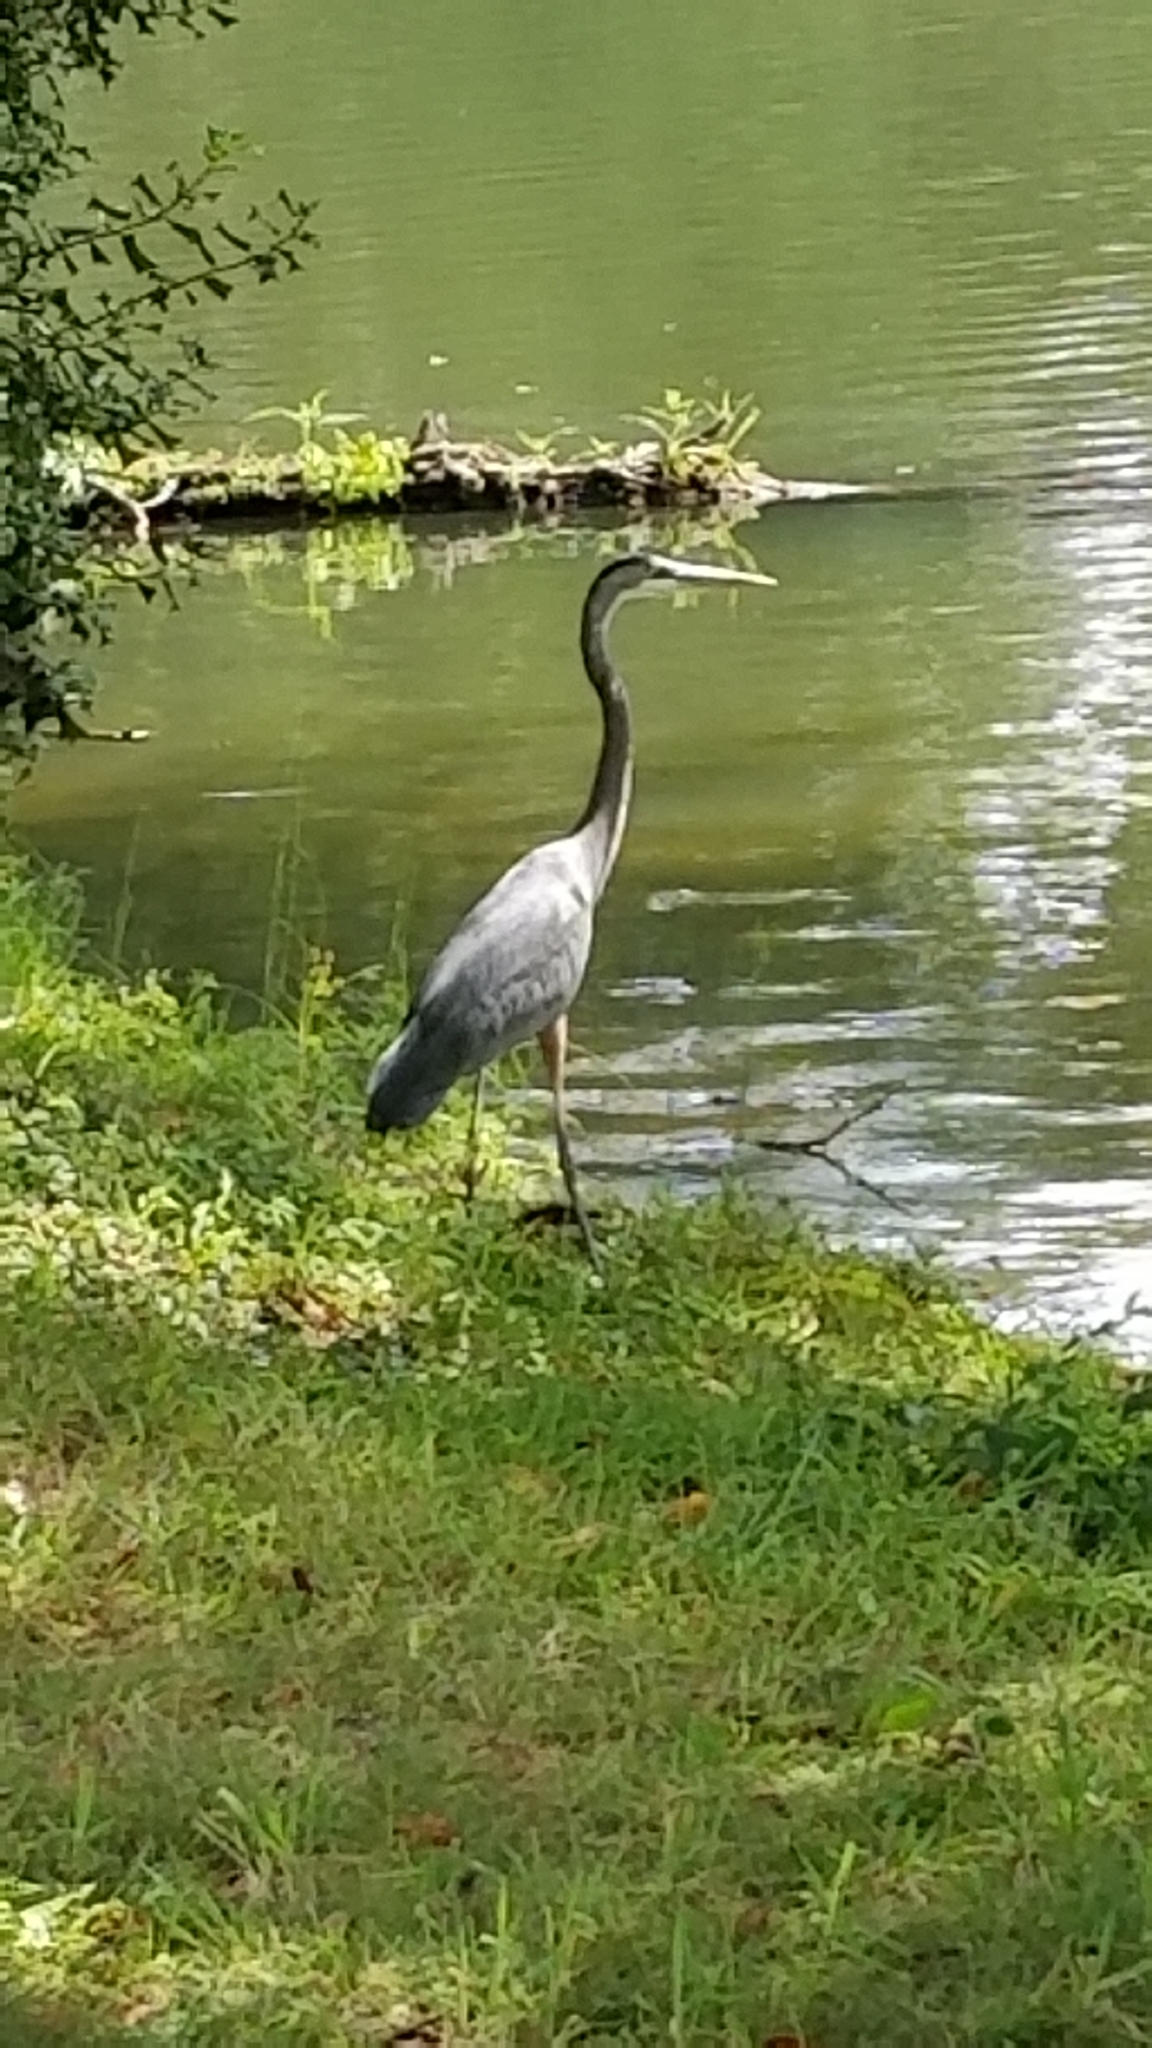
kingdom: Animalia
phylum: Chordata
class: Aves
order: Pelecaniformes
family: Ardeidae
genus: Ardea
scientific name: Ardea herodias
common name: Great blue heron
